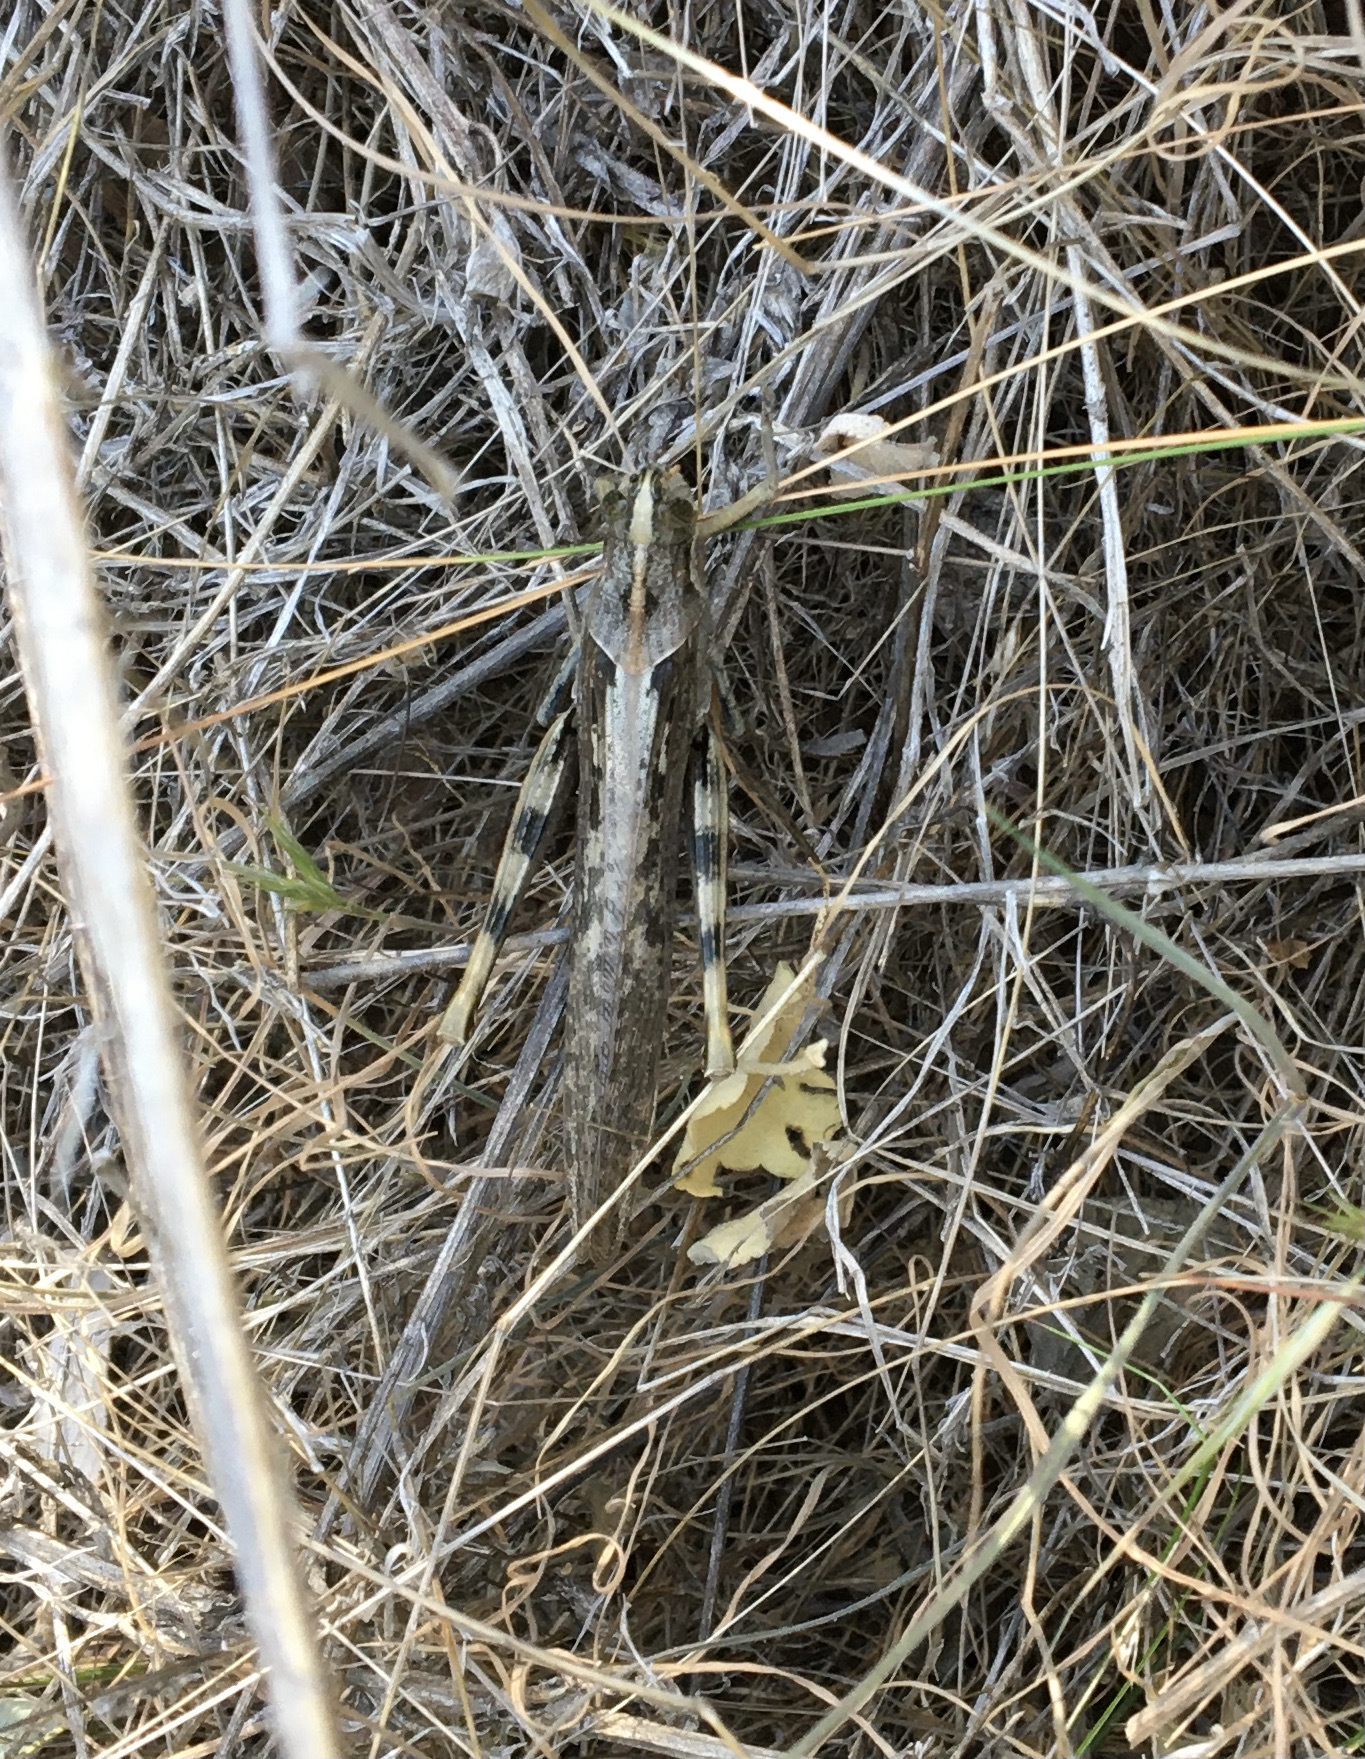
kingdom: Animalia
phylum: Arthropoda
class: Insecta
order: Orthoptera
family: Acrididae
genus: Schistocerca
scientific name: Schistocerca nitens
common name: Vagrant grasshopper
